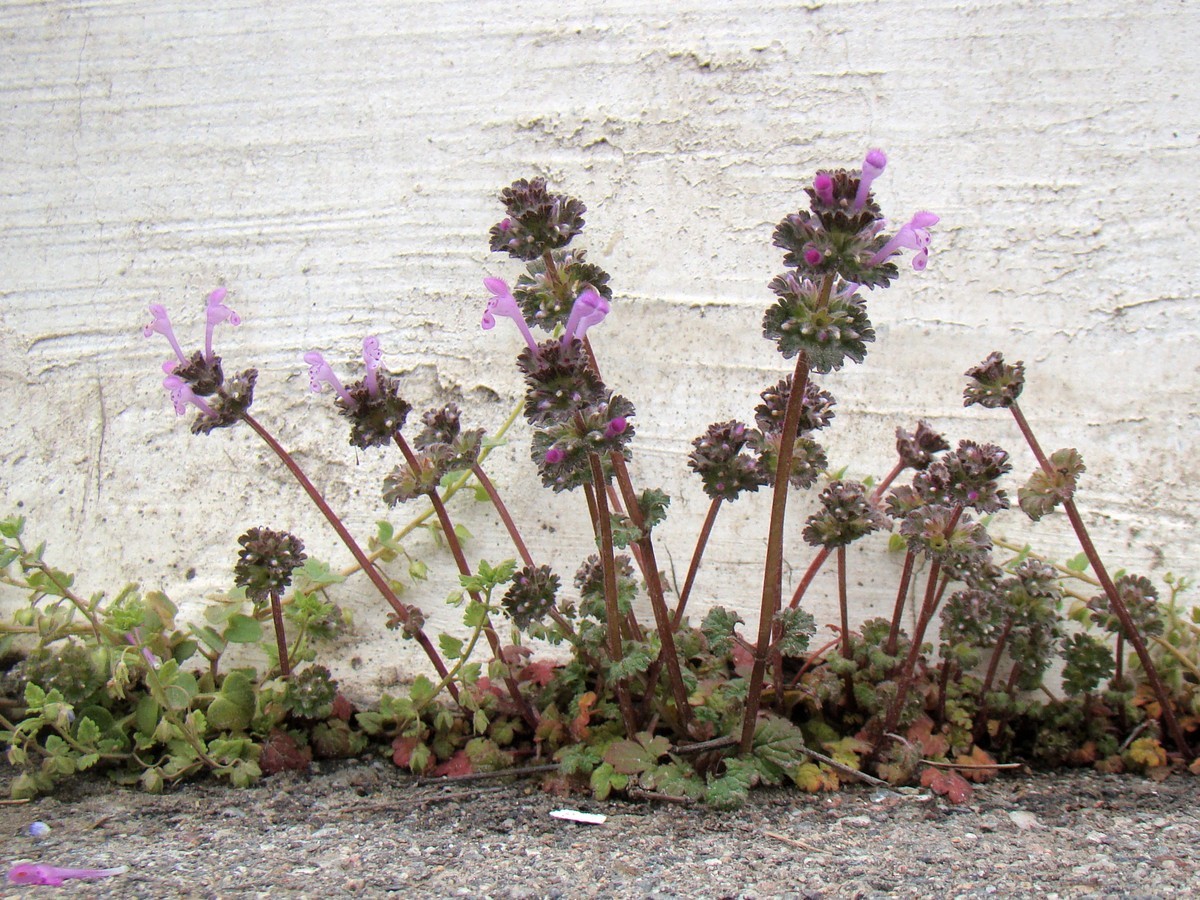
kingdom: Plantae
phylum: Tracheophyta
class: Magnoliopsida
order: Lamiales
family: Lamiaceae
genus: Lamium
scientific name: Lamium amplexicaule
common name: Henbit dead-nettle
